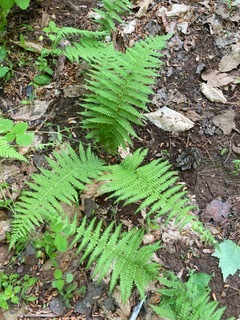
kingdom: Plantae
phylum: Tracheophyta
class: Polypodiopsida
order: Polypodiales
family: Thelypteridaceae
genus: Amauropelta
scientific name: Amauropelta noveboracensis
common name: New york fern
